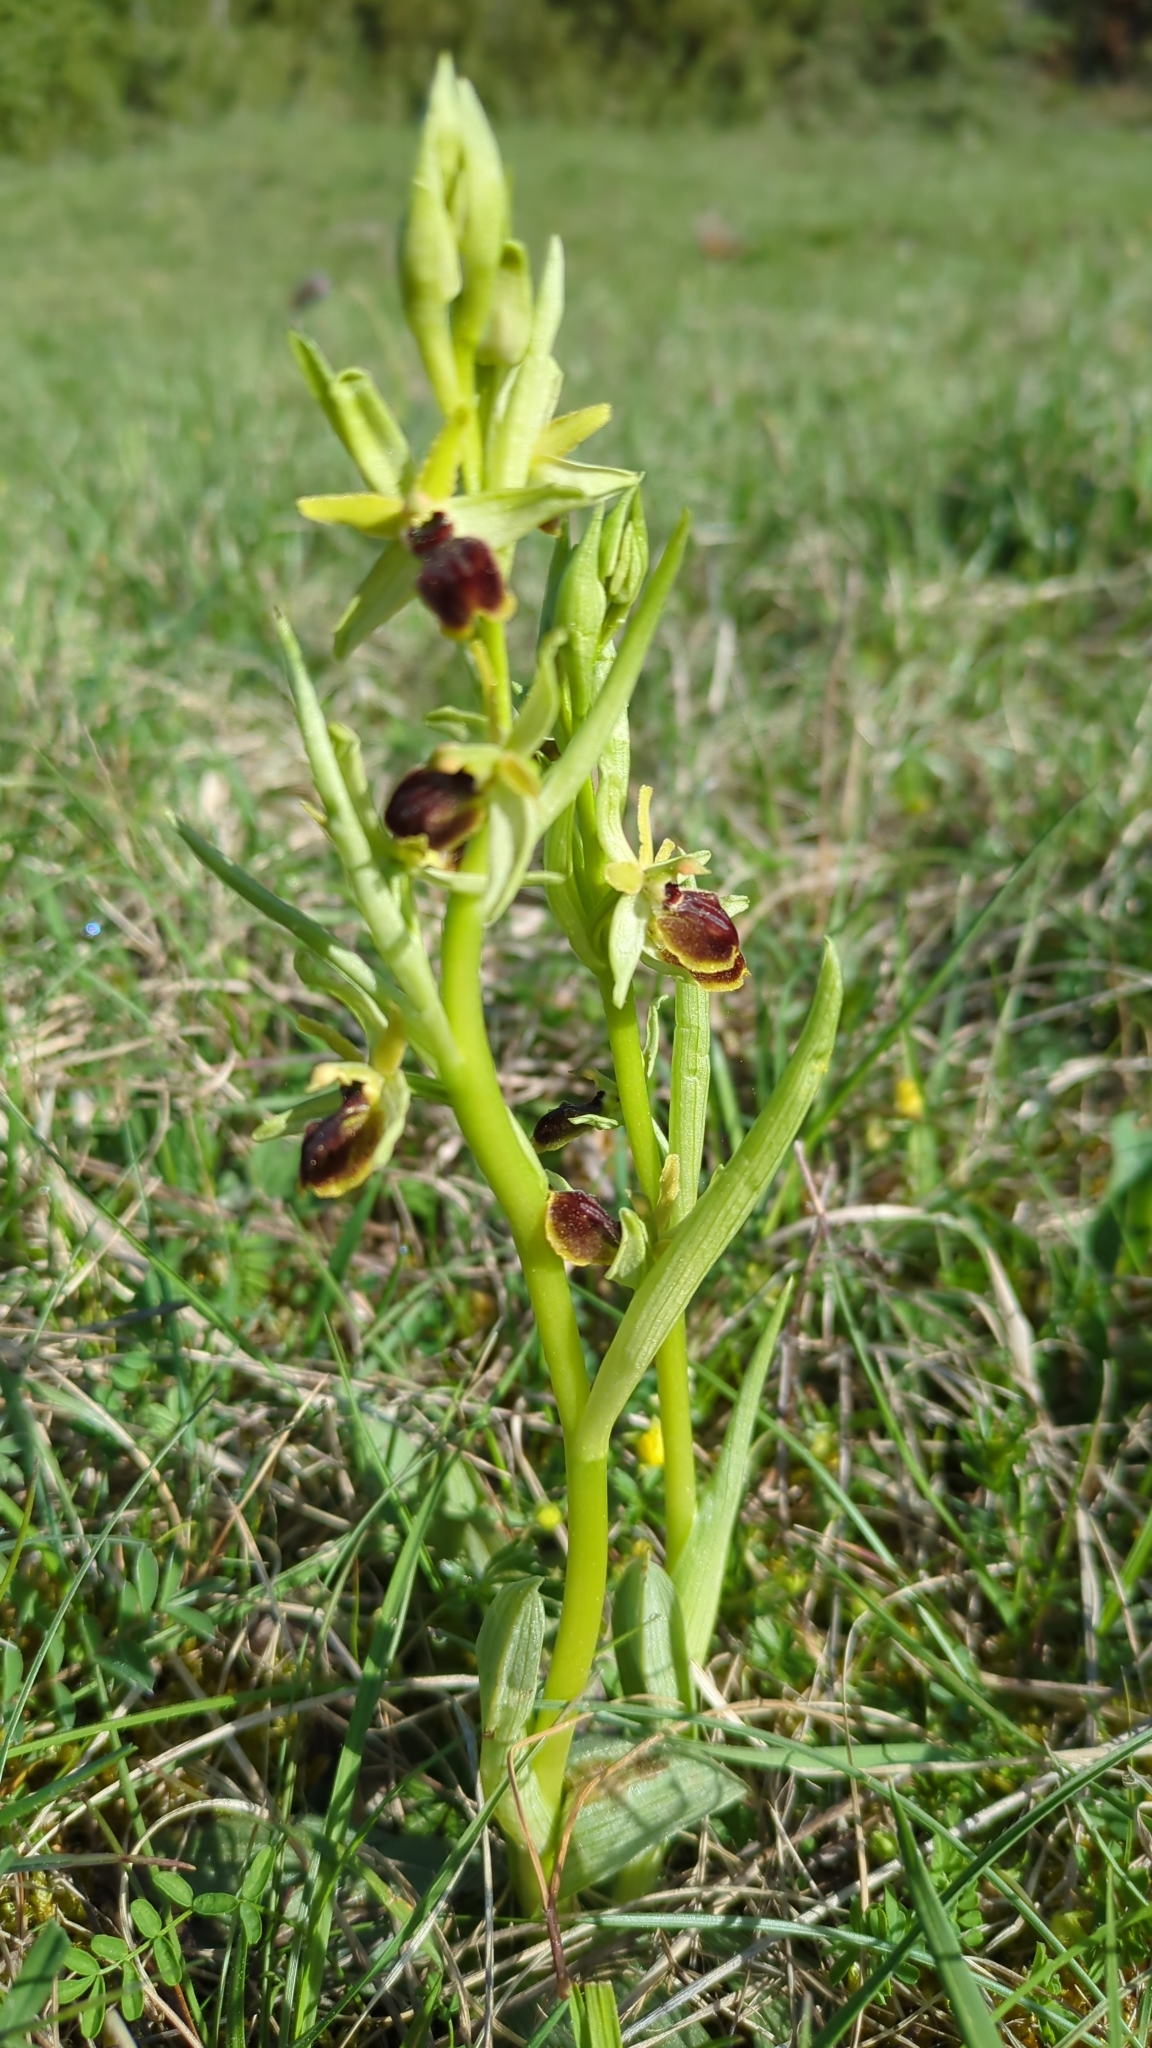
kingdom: Plantae
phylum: Tracheophyta
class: Liliopsida
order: Asparagales
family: Orchidaceae
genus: Ophrys
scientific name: Ophrys araneola
